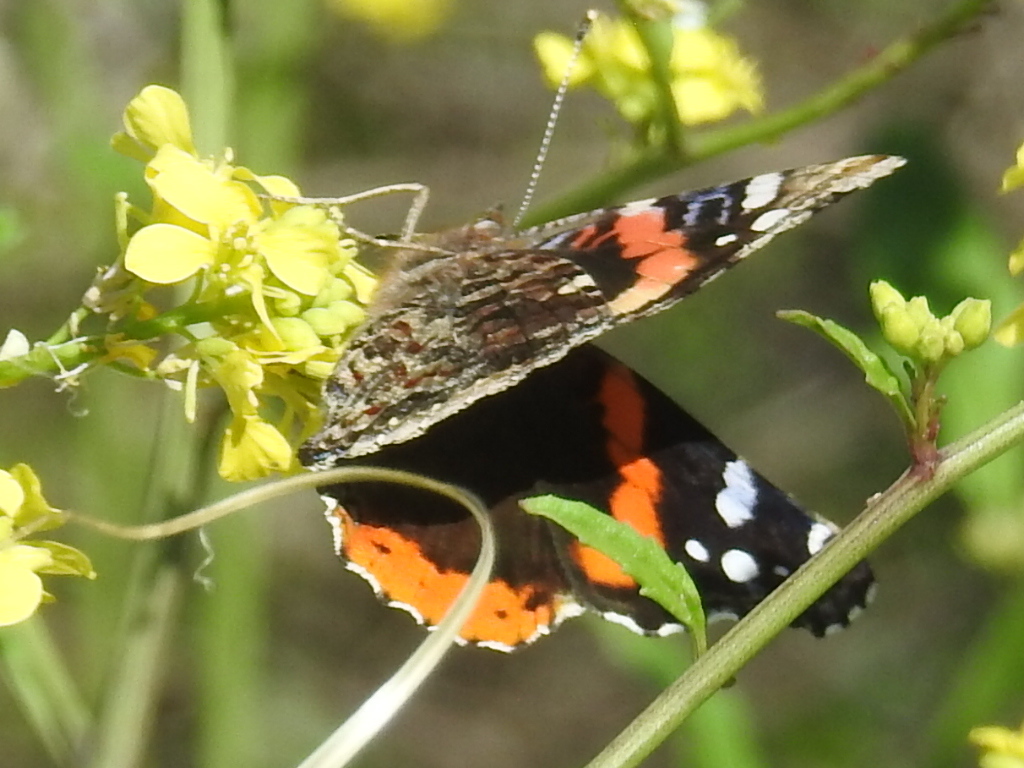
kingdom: Animalia
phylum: Arthropoda
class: Insecta
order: Lepidoptera
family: Nymphalidae
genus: Vanessa
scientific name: Vanessa atalanta
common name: Red admiral
